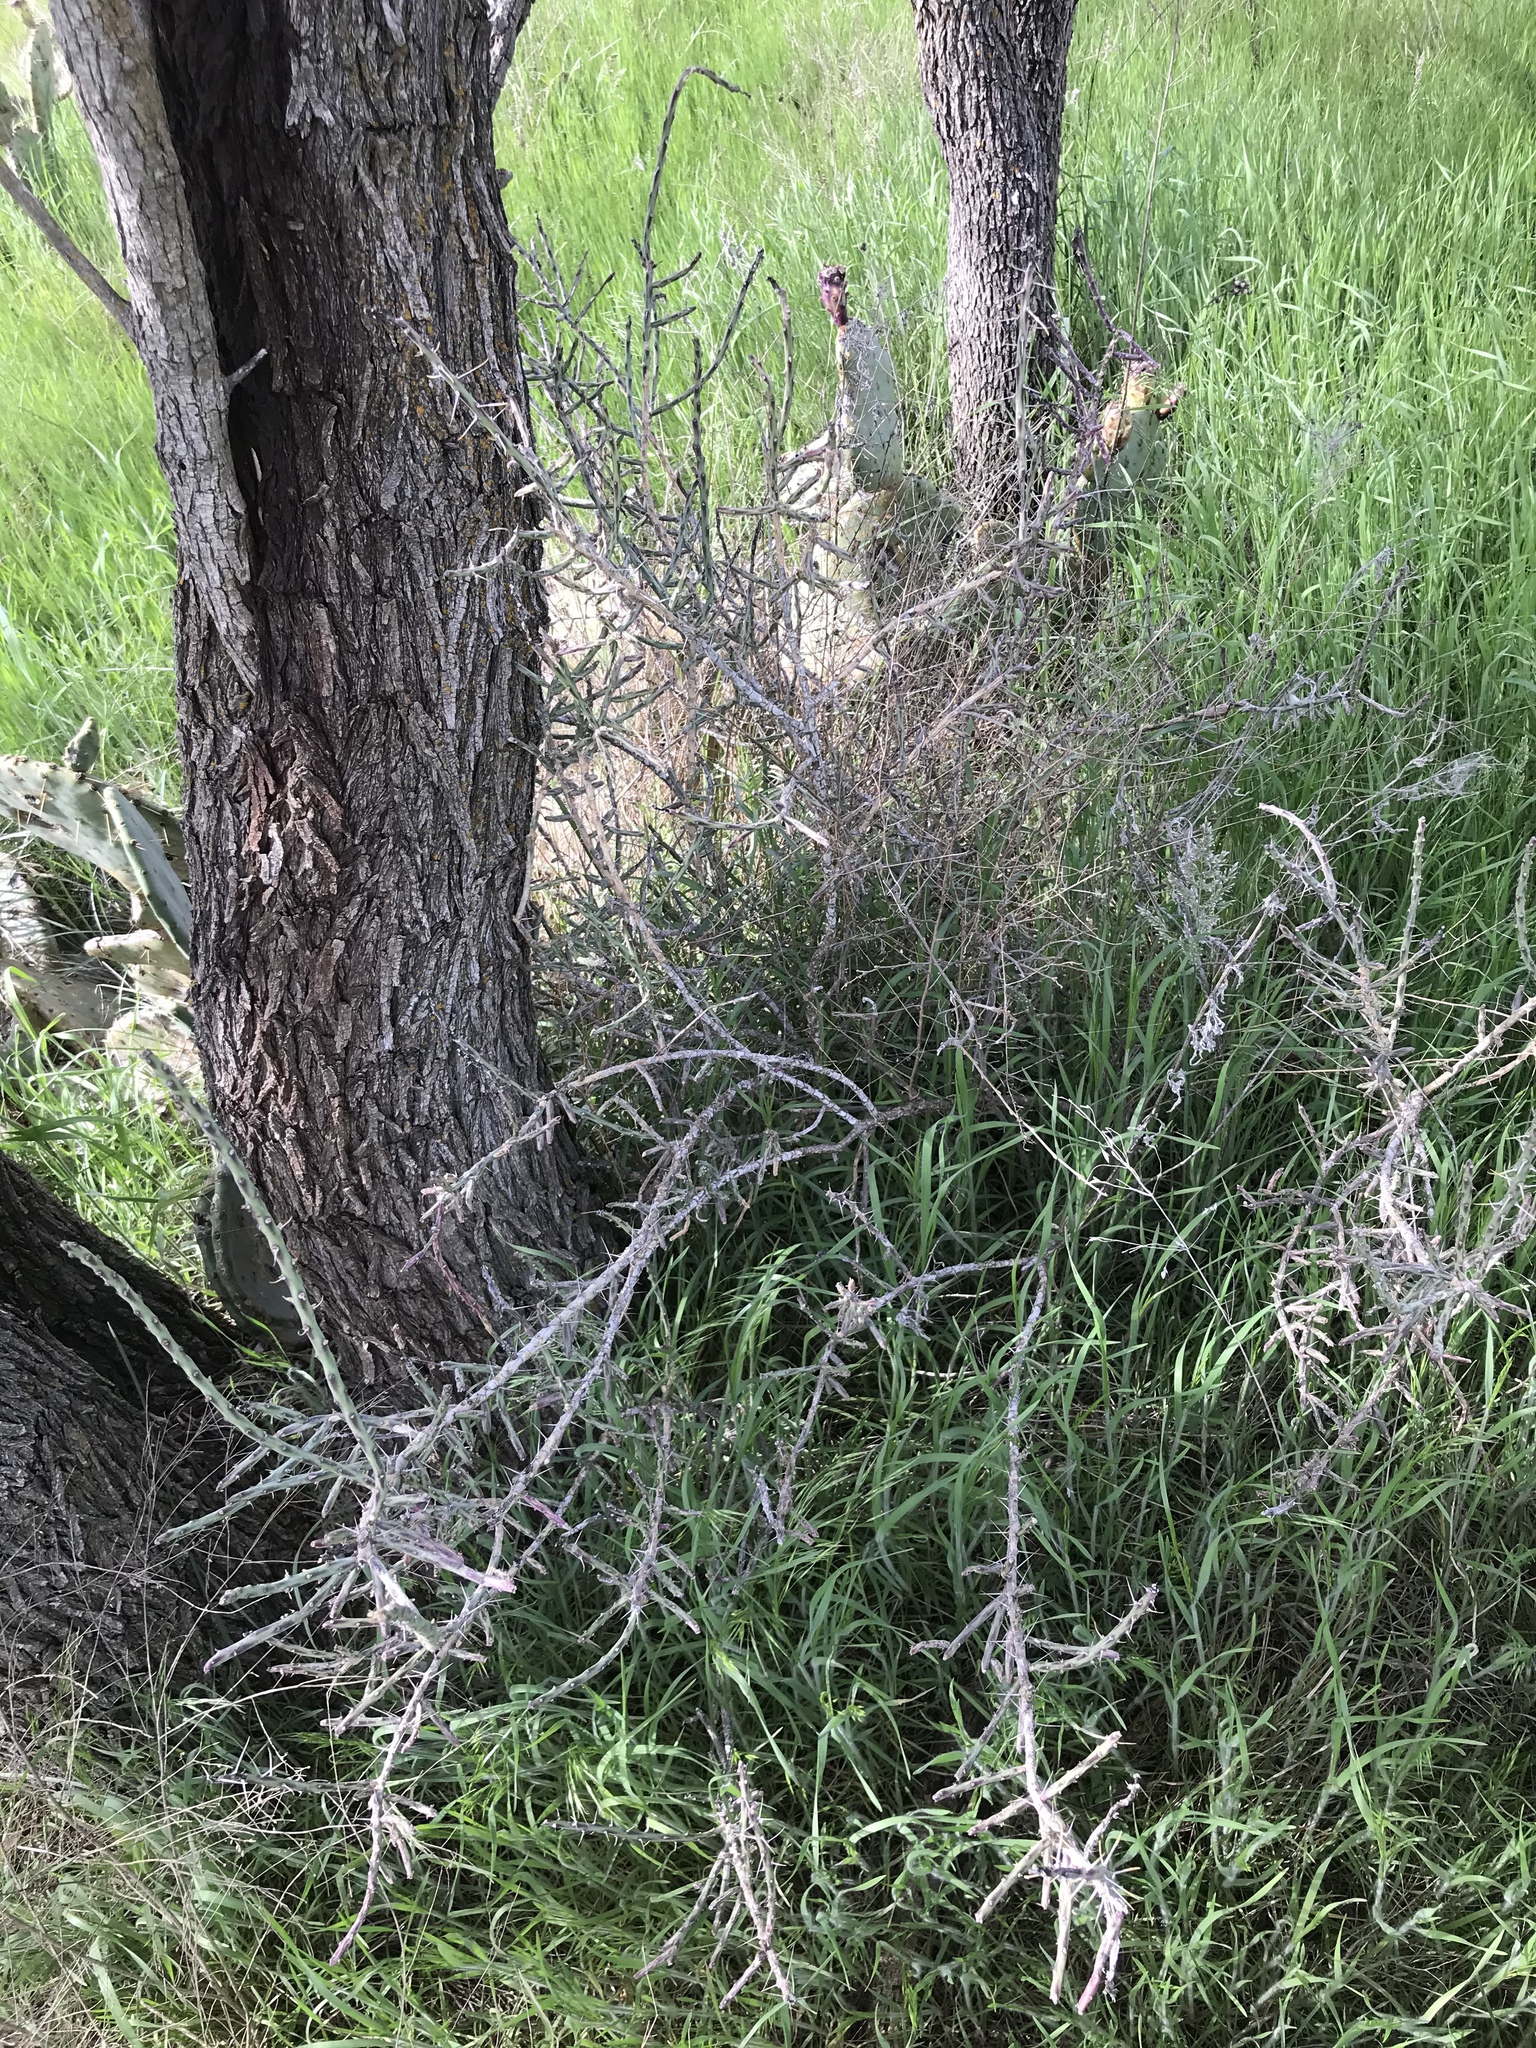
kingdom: Plantae
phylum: Tracheophyta
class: Magnoliopsida
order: Caryophyllales
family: Cactaceae
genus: Cylindropuntia
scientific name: Cylindropuntia leptocaulis
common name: Christmas cactus
